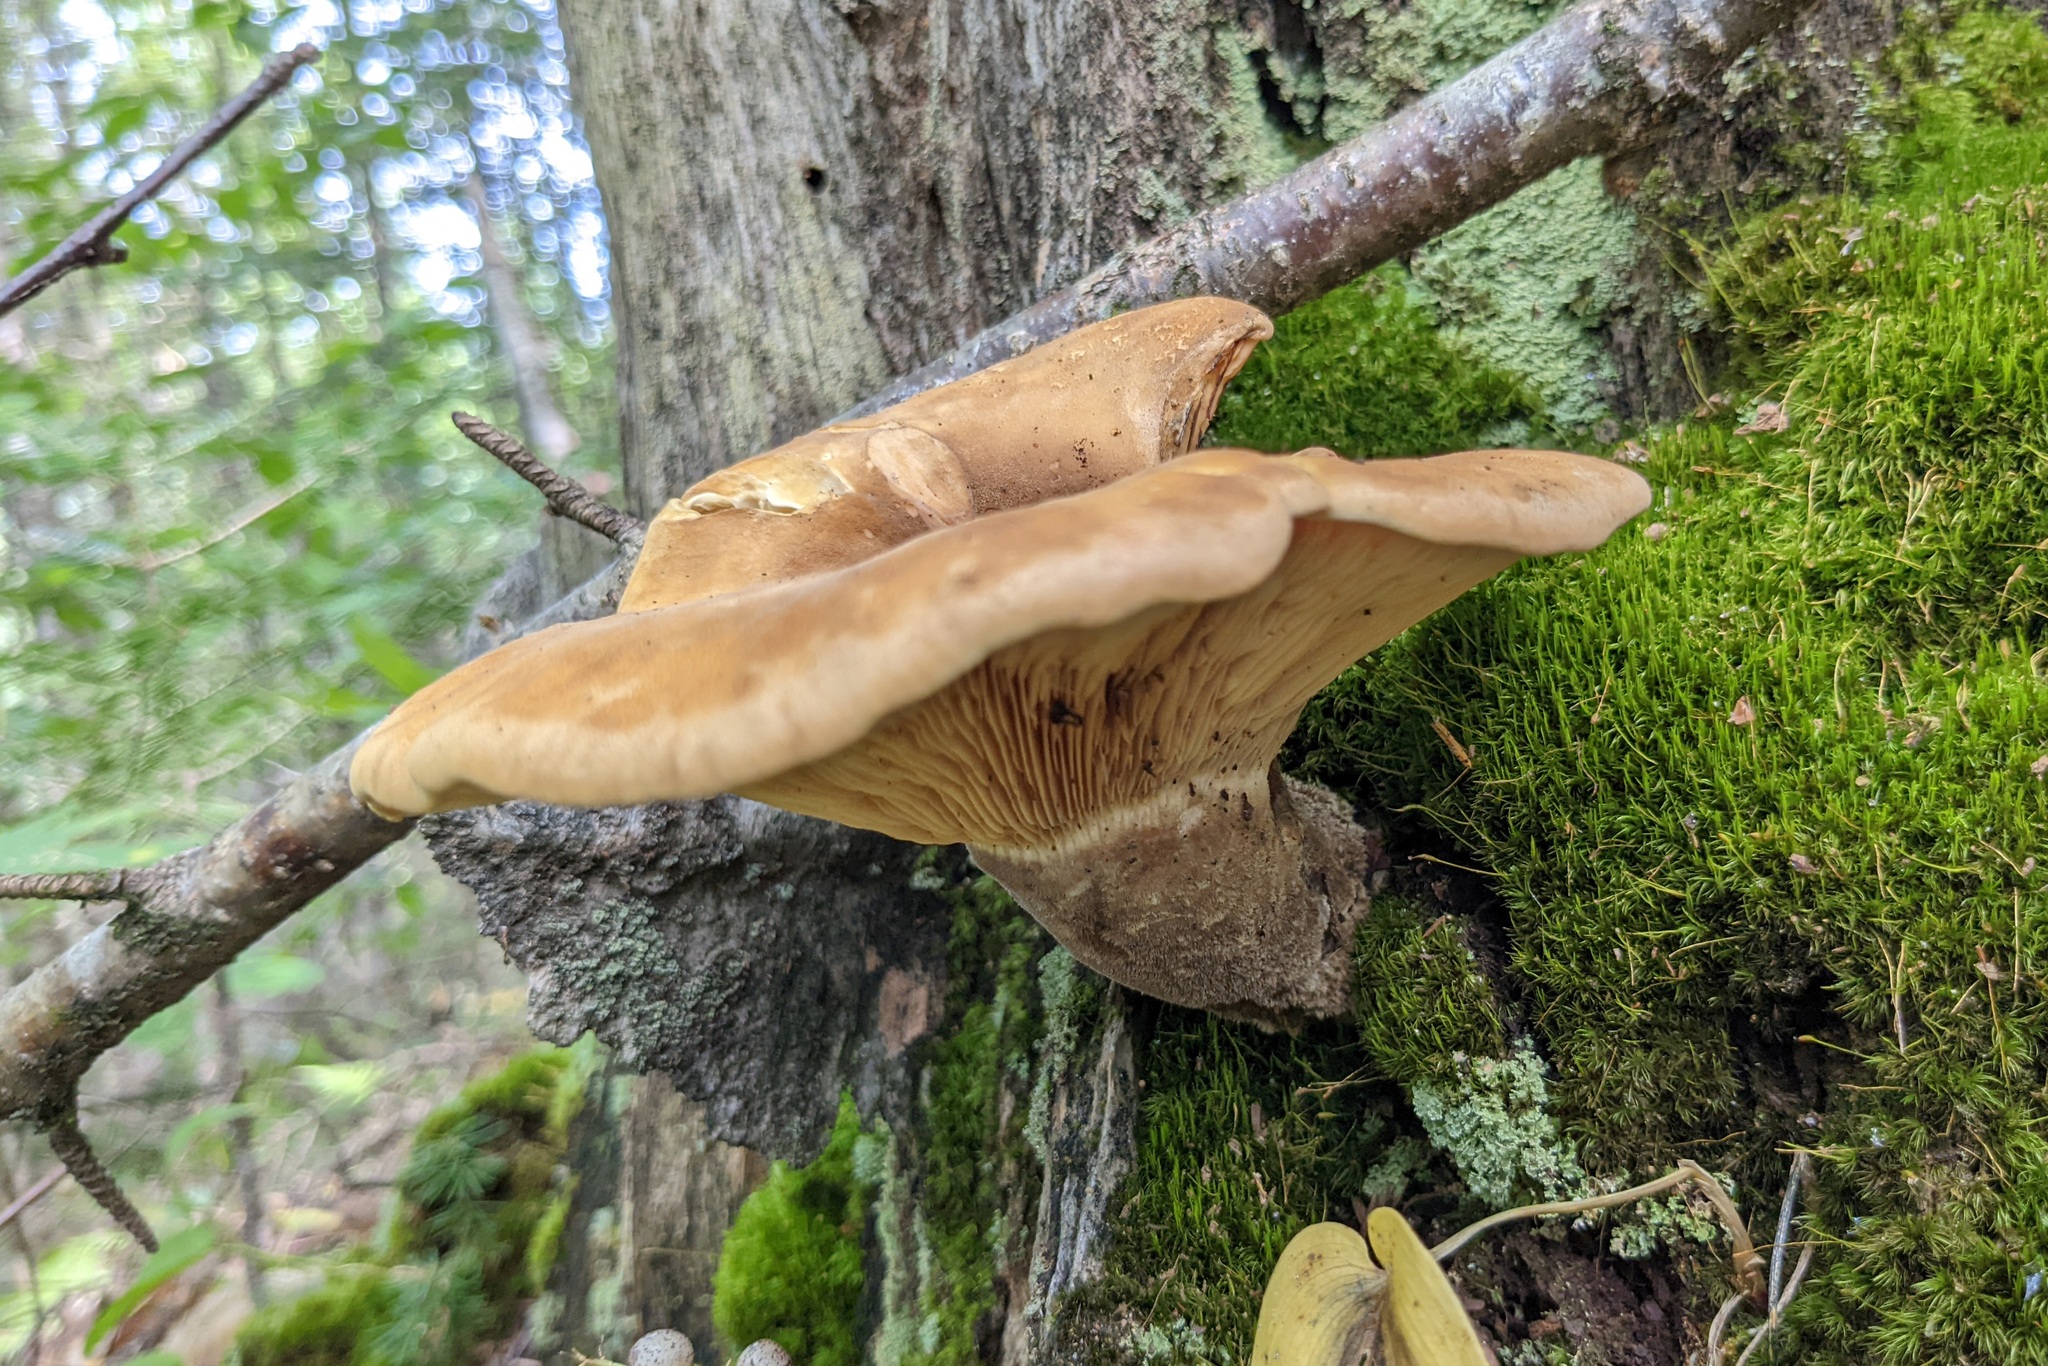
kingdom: Fungi
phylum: Basidiomycota
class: Agaricomycetes
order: Boletales
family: Tapinellaceae
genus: Tapinella
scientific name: Tapinella atrotomentosa
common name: Velvet rollrim
